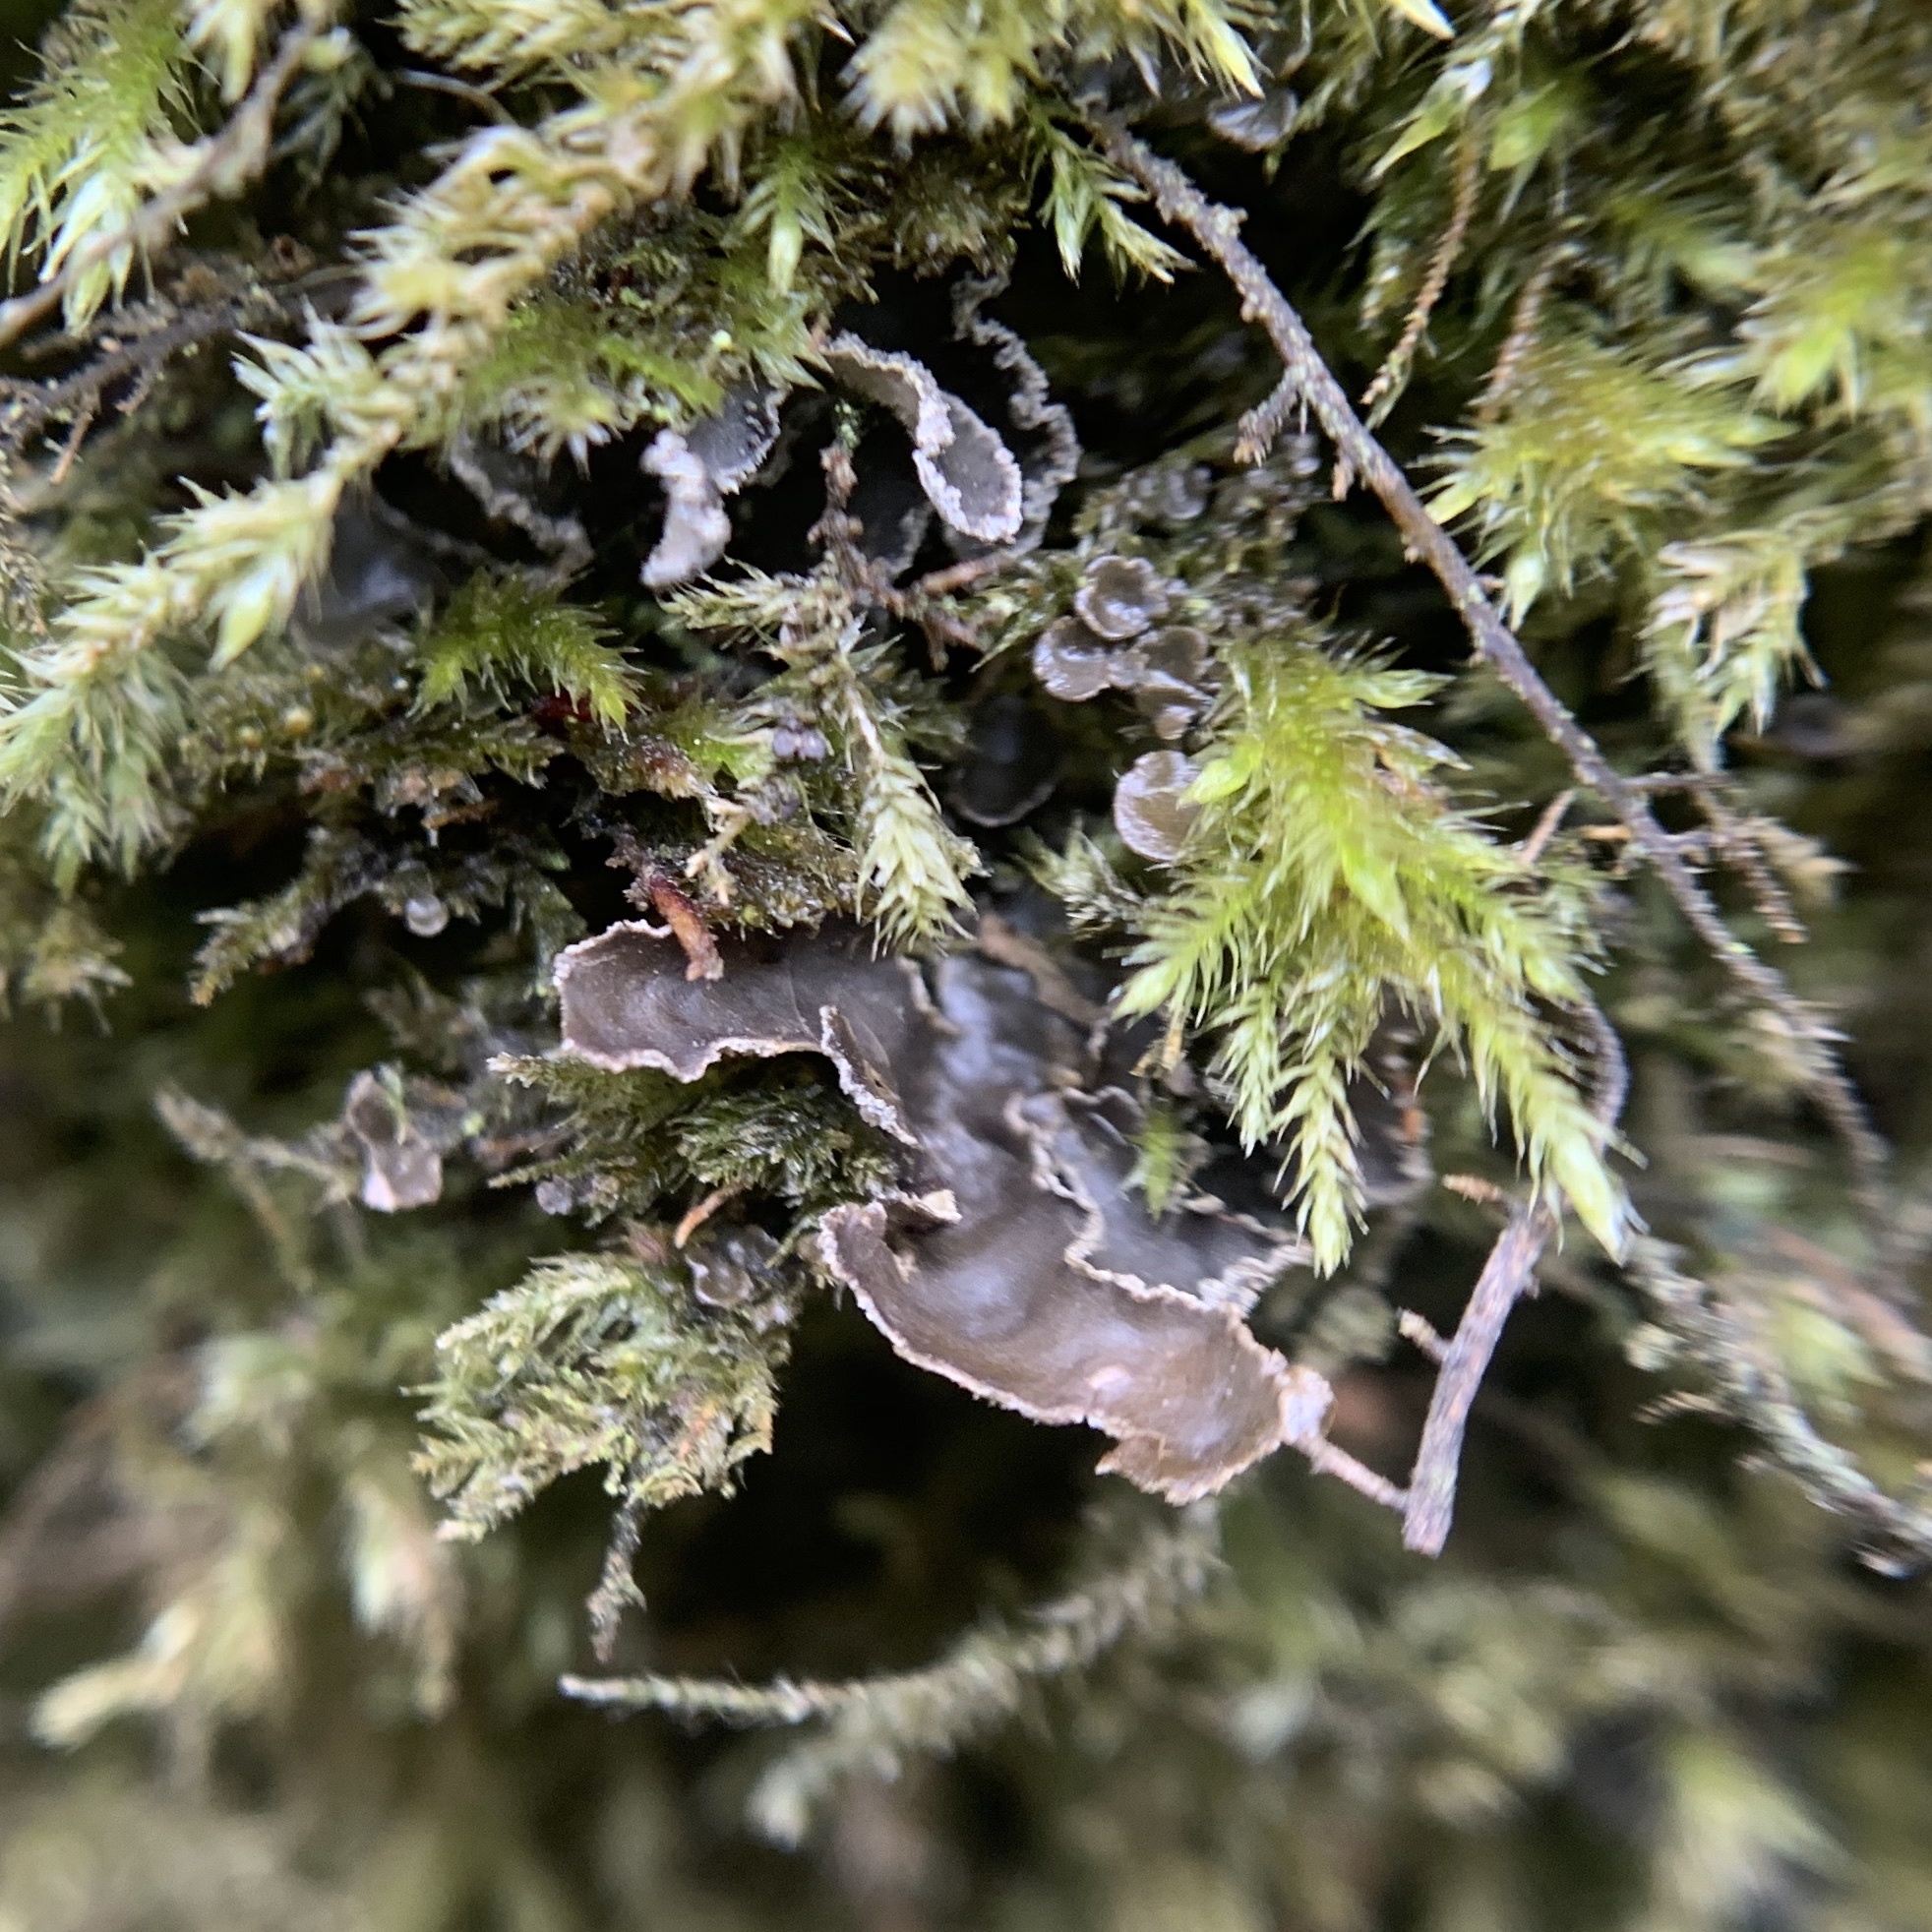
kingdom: Fungi
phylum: Ascomycota
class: Lecanoromycetes
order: Peltigerales
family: Lobariaceae
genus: Sticta
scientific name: Sticta limbata
